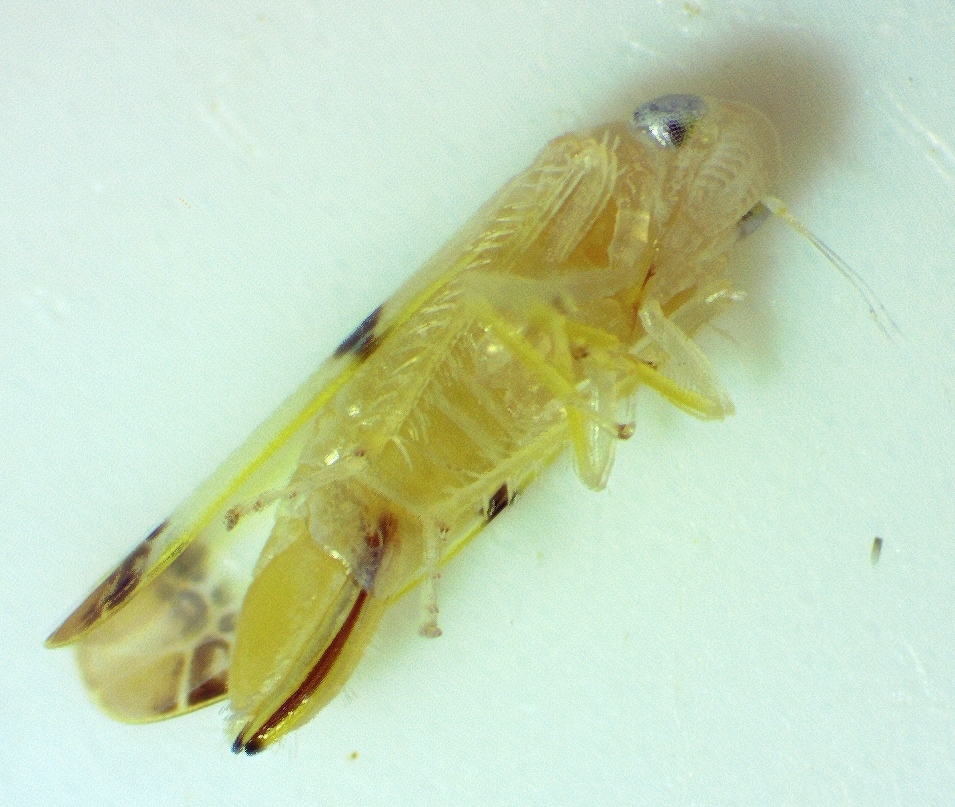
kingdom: Animalia
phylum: Arthropoda
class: Insecta
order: Hemiptera
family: Cicadellidae
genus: Empoa
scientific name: Empoa gillettei
